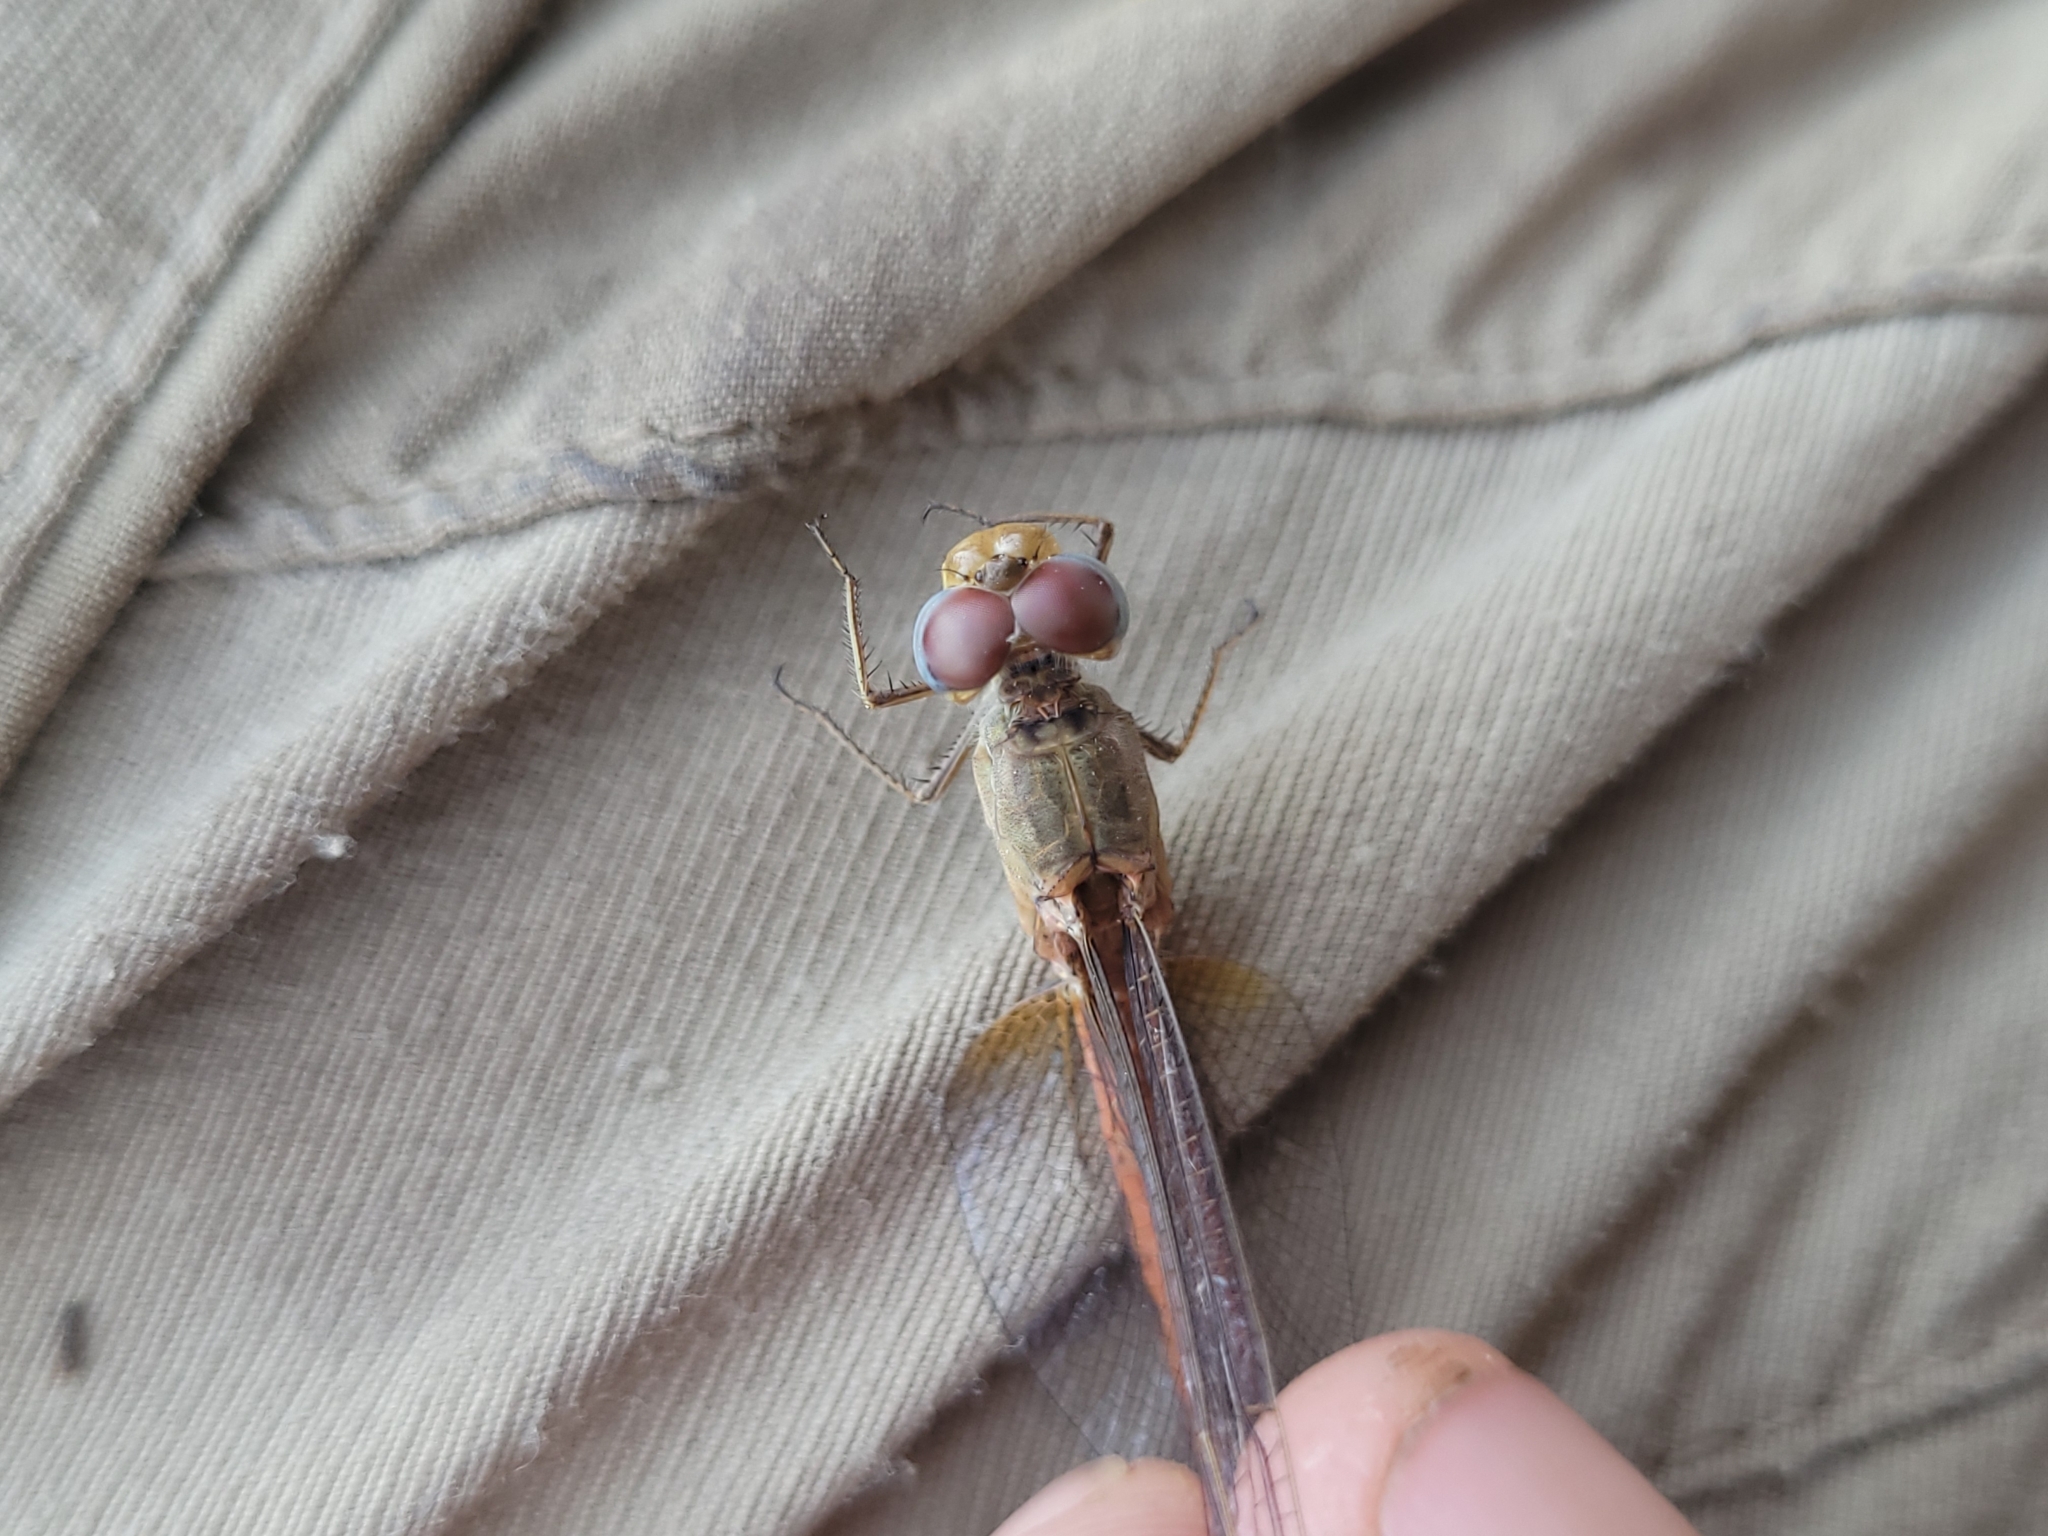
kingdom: Animalia
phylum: Arthropoda
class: Insecta
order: Odonata
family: Libellulidae
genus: Crocothemis
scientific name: Crocothemis divisa
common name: Divisa scarlet
